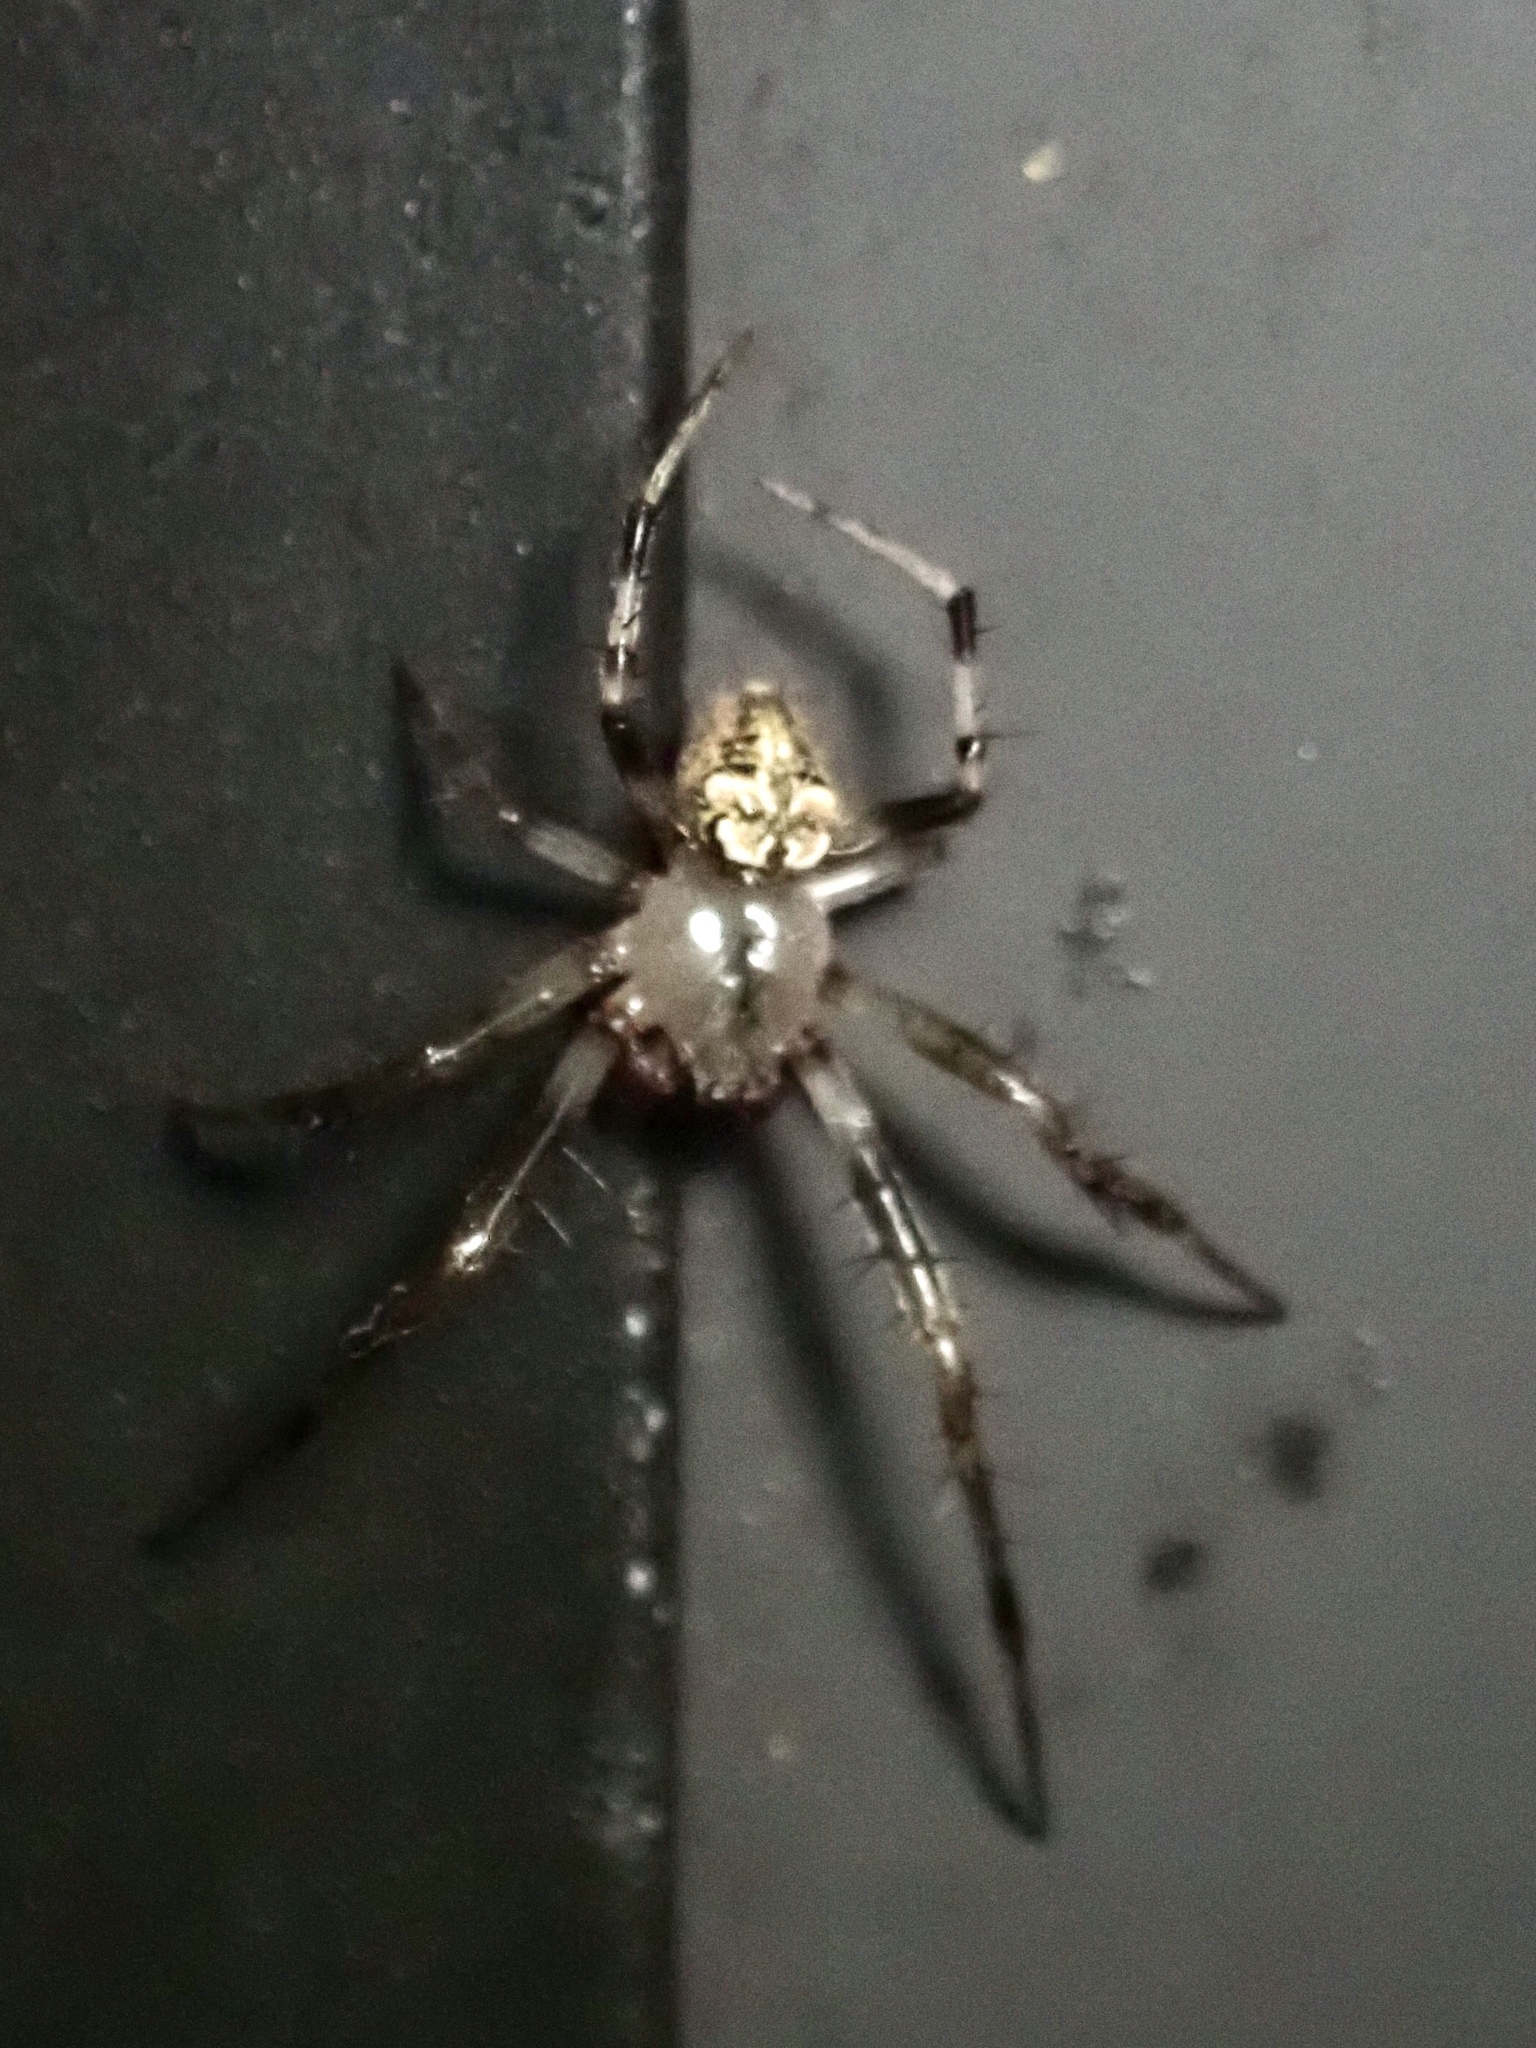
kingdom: Animalia
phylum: Arthropoda
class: Arachnida
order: Araneae
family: Araneidae
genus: Araneus
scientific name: Araneus pegnia
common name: Orb weavers
